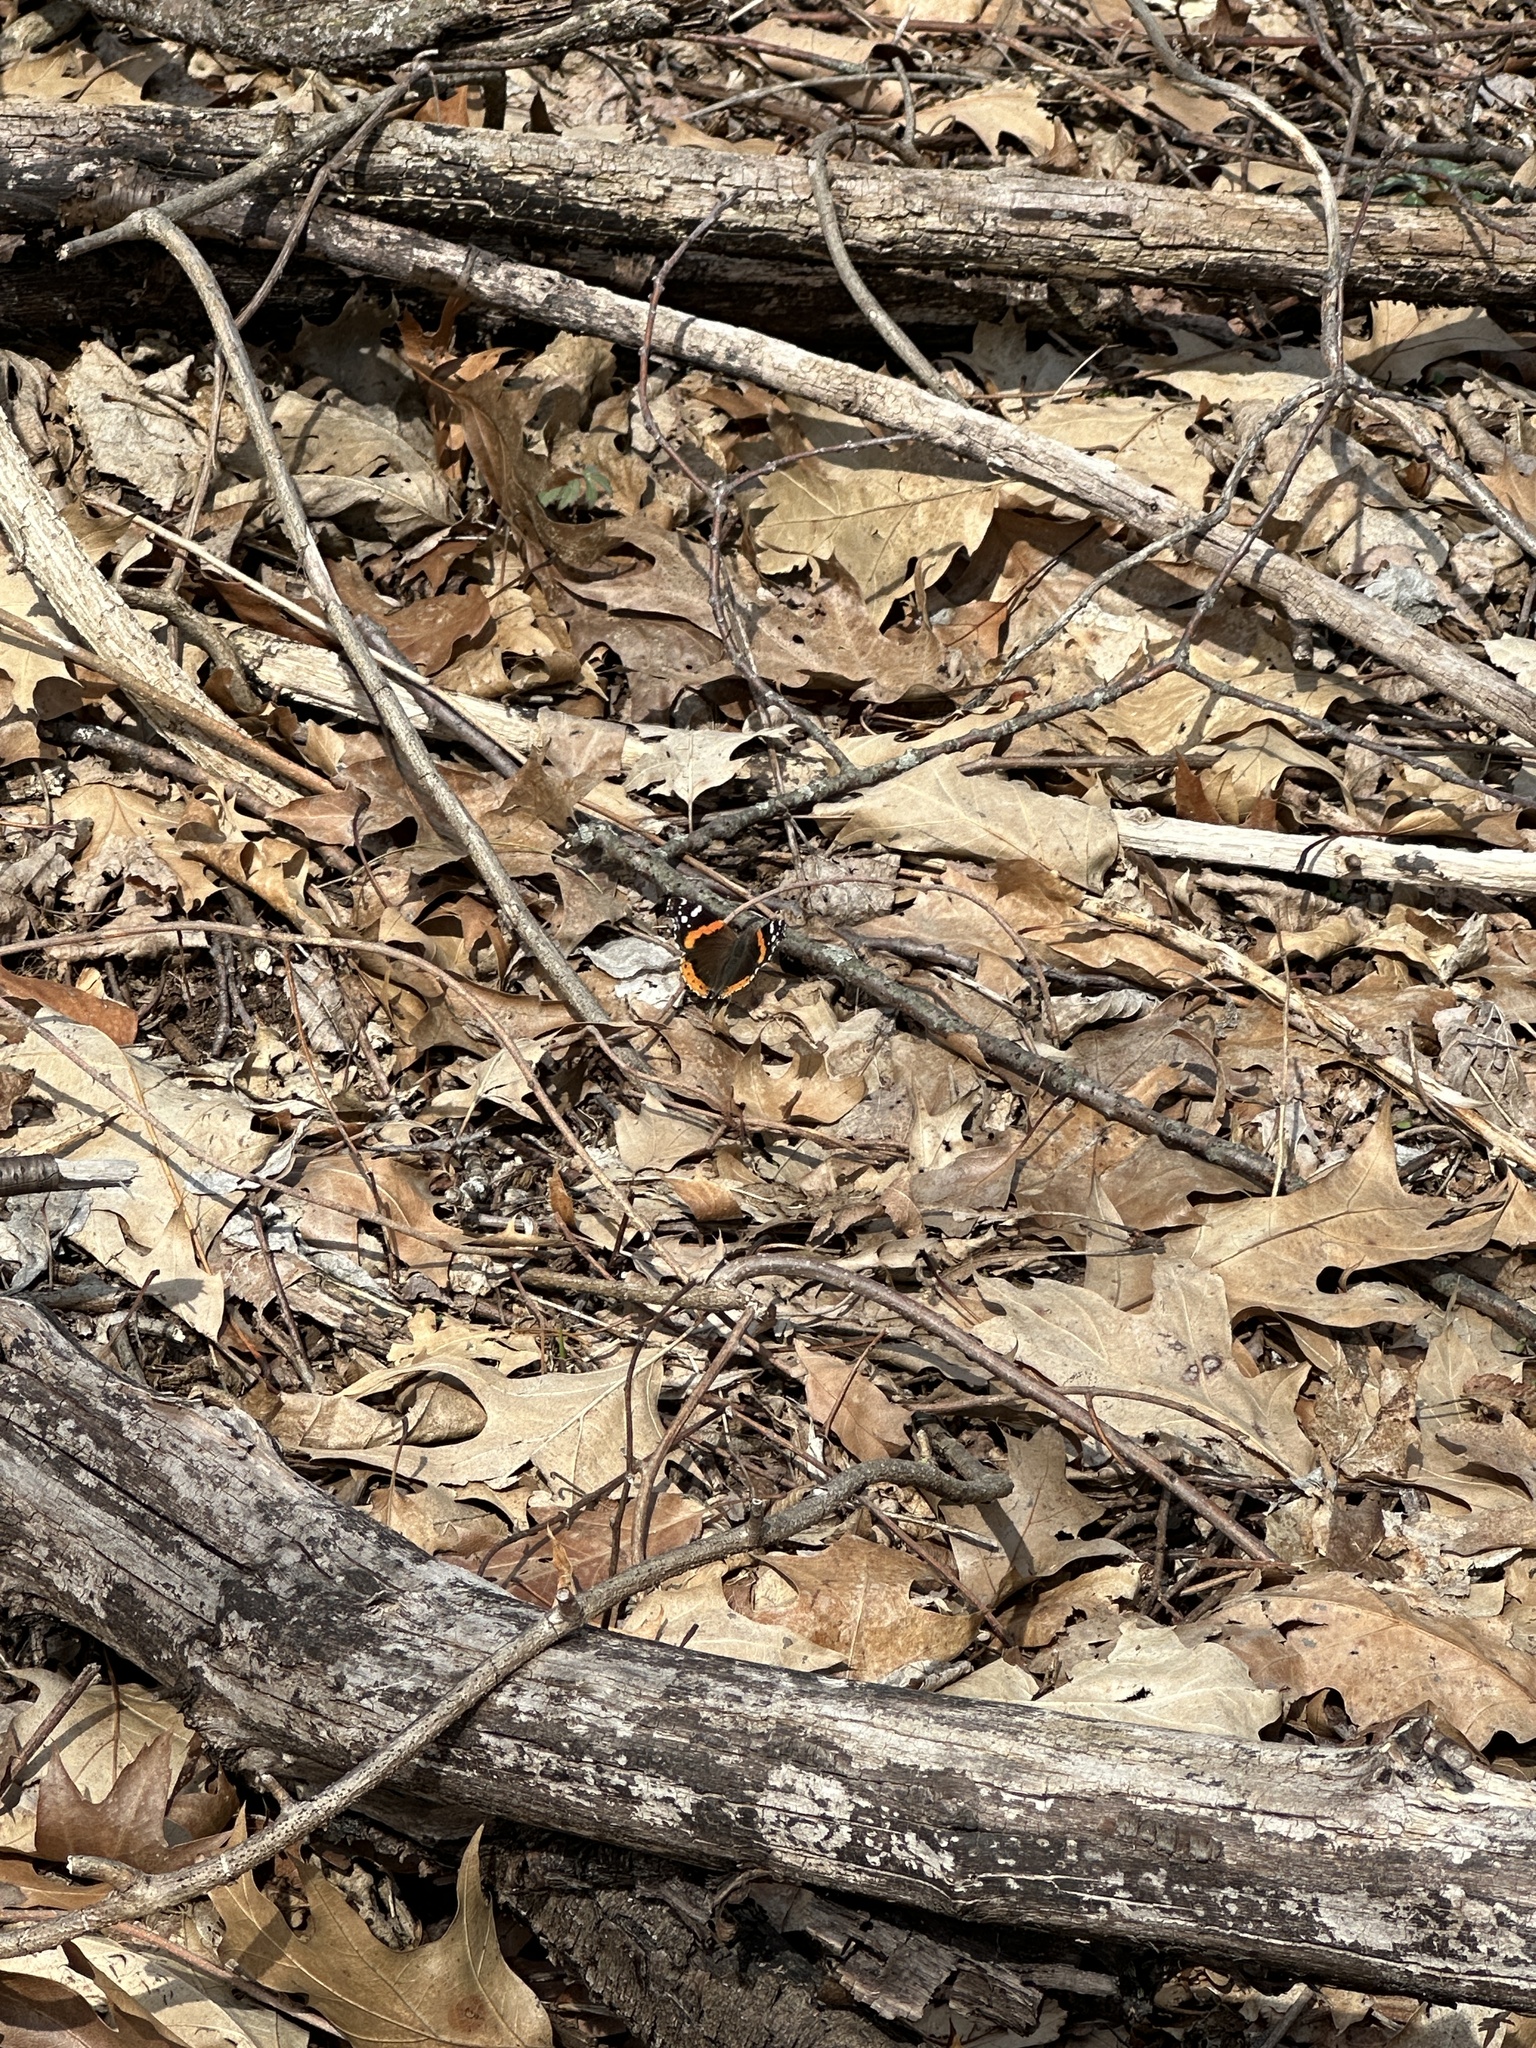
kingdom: Animalia
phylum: Arthropoda
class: Insecta
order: Lepidoptera
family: Nymphalidae
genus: Vanessa
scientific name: Vanessa atalanta
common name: Red admiral
